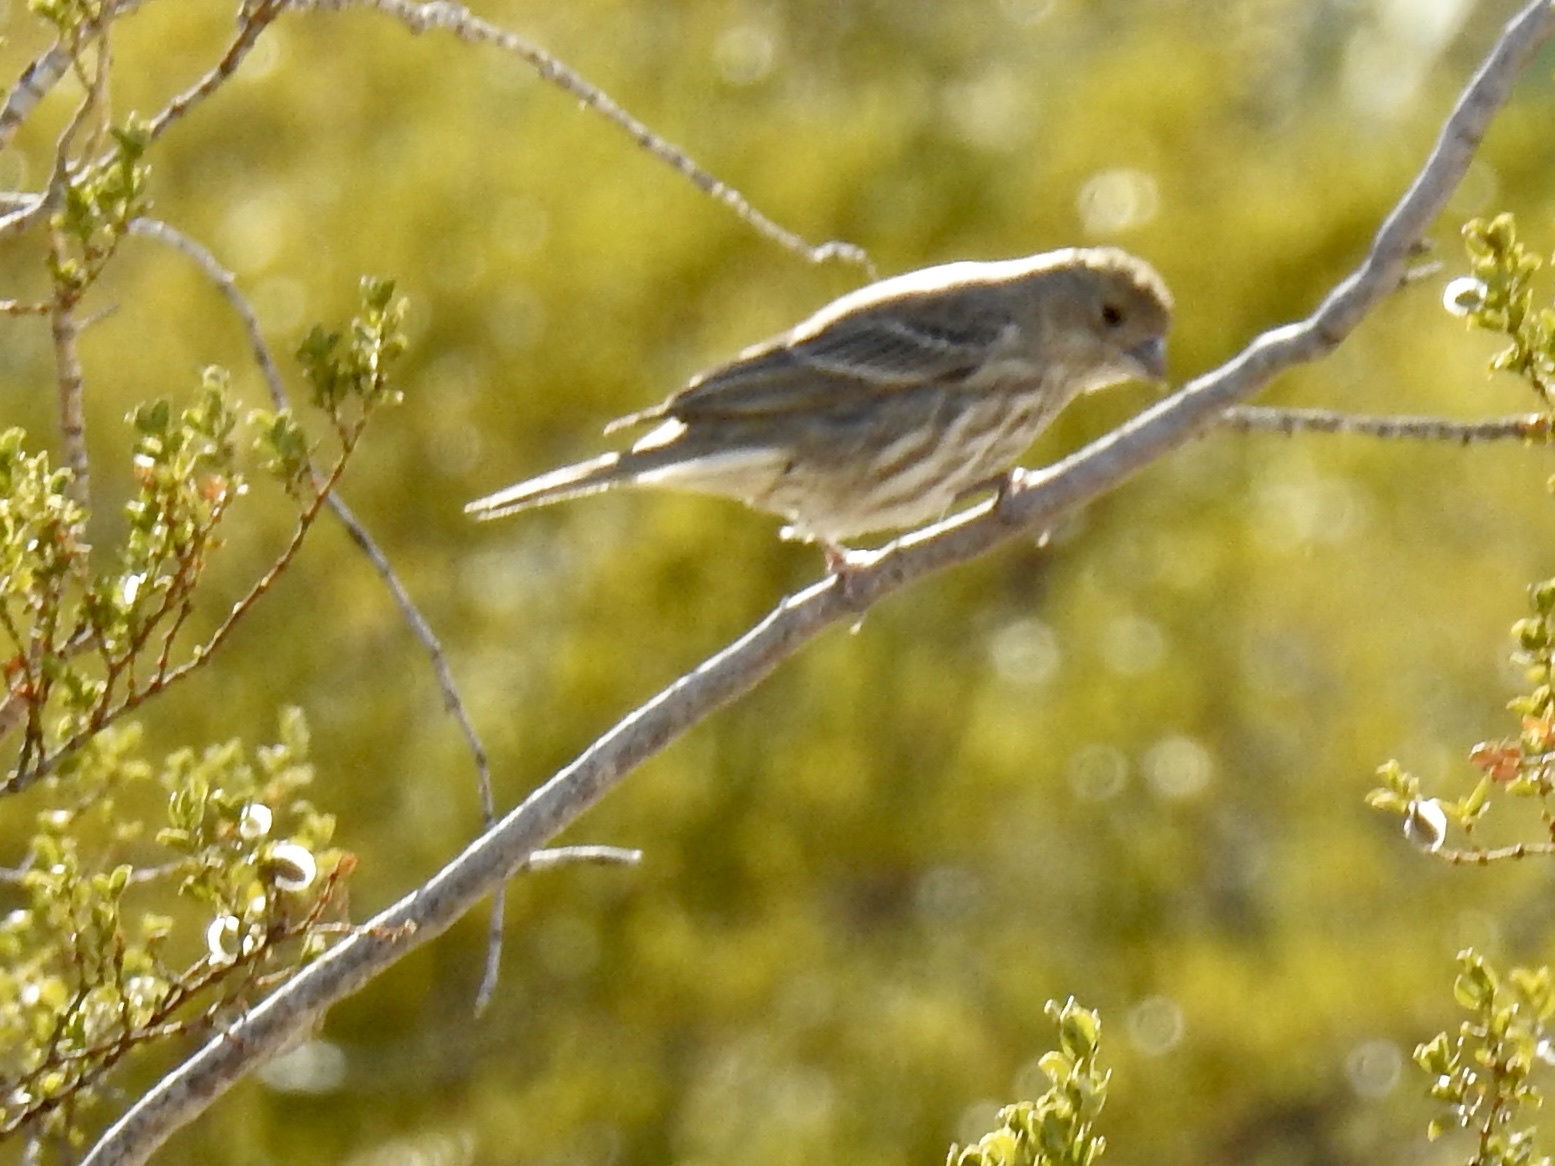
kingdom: Animalia
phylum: Chordata
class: Aves
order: Passeriformes
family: Fringillidae
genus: Haemorhous
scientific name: Haemorhous mexicanus
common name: House finch
